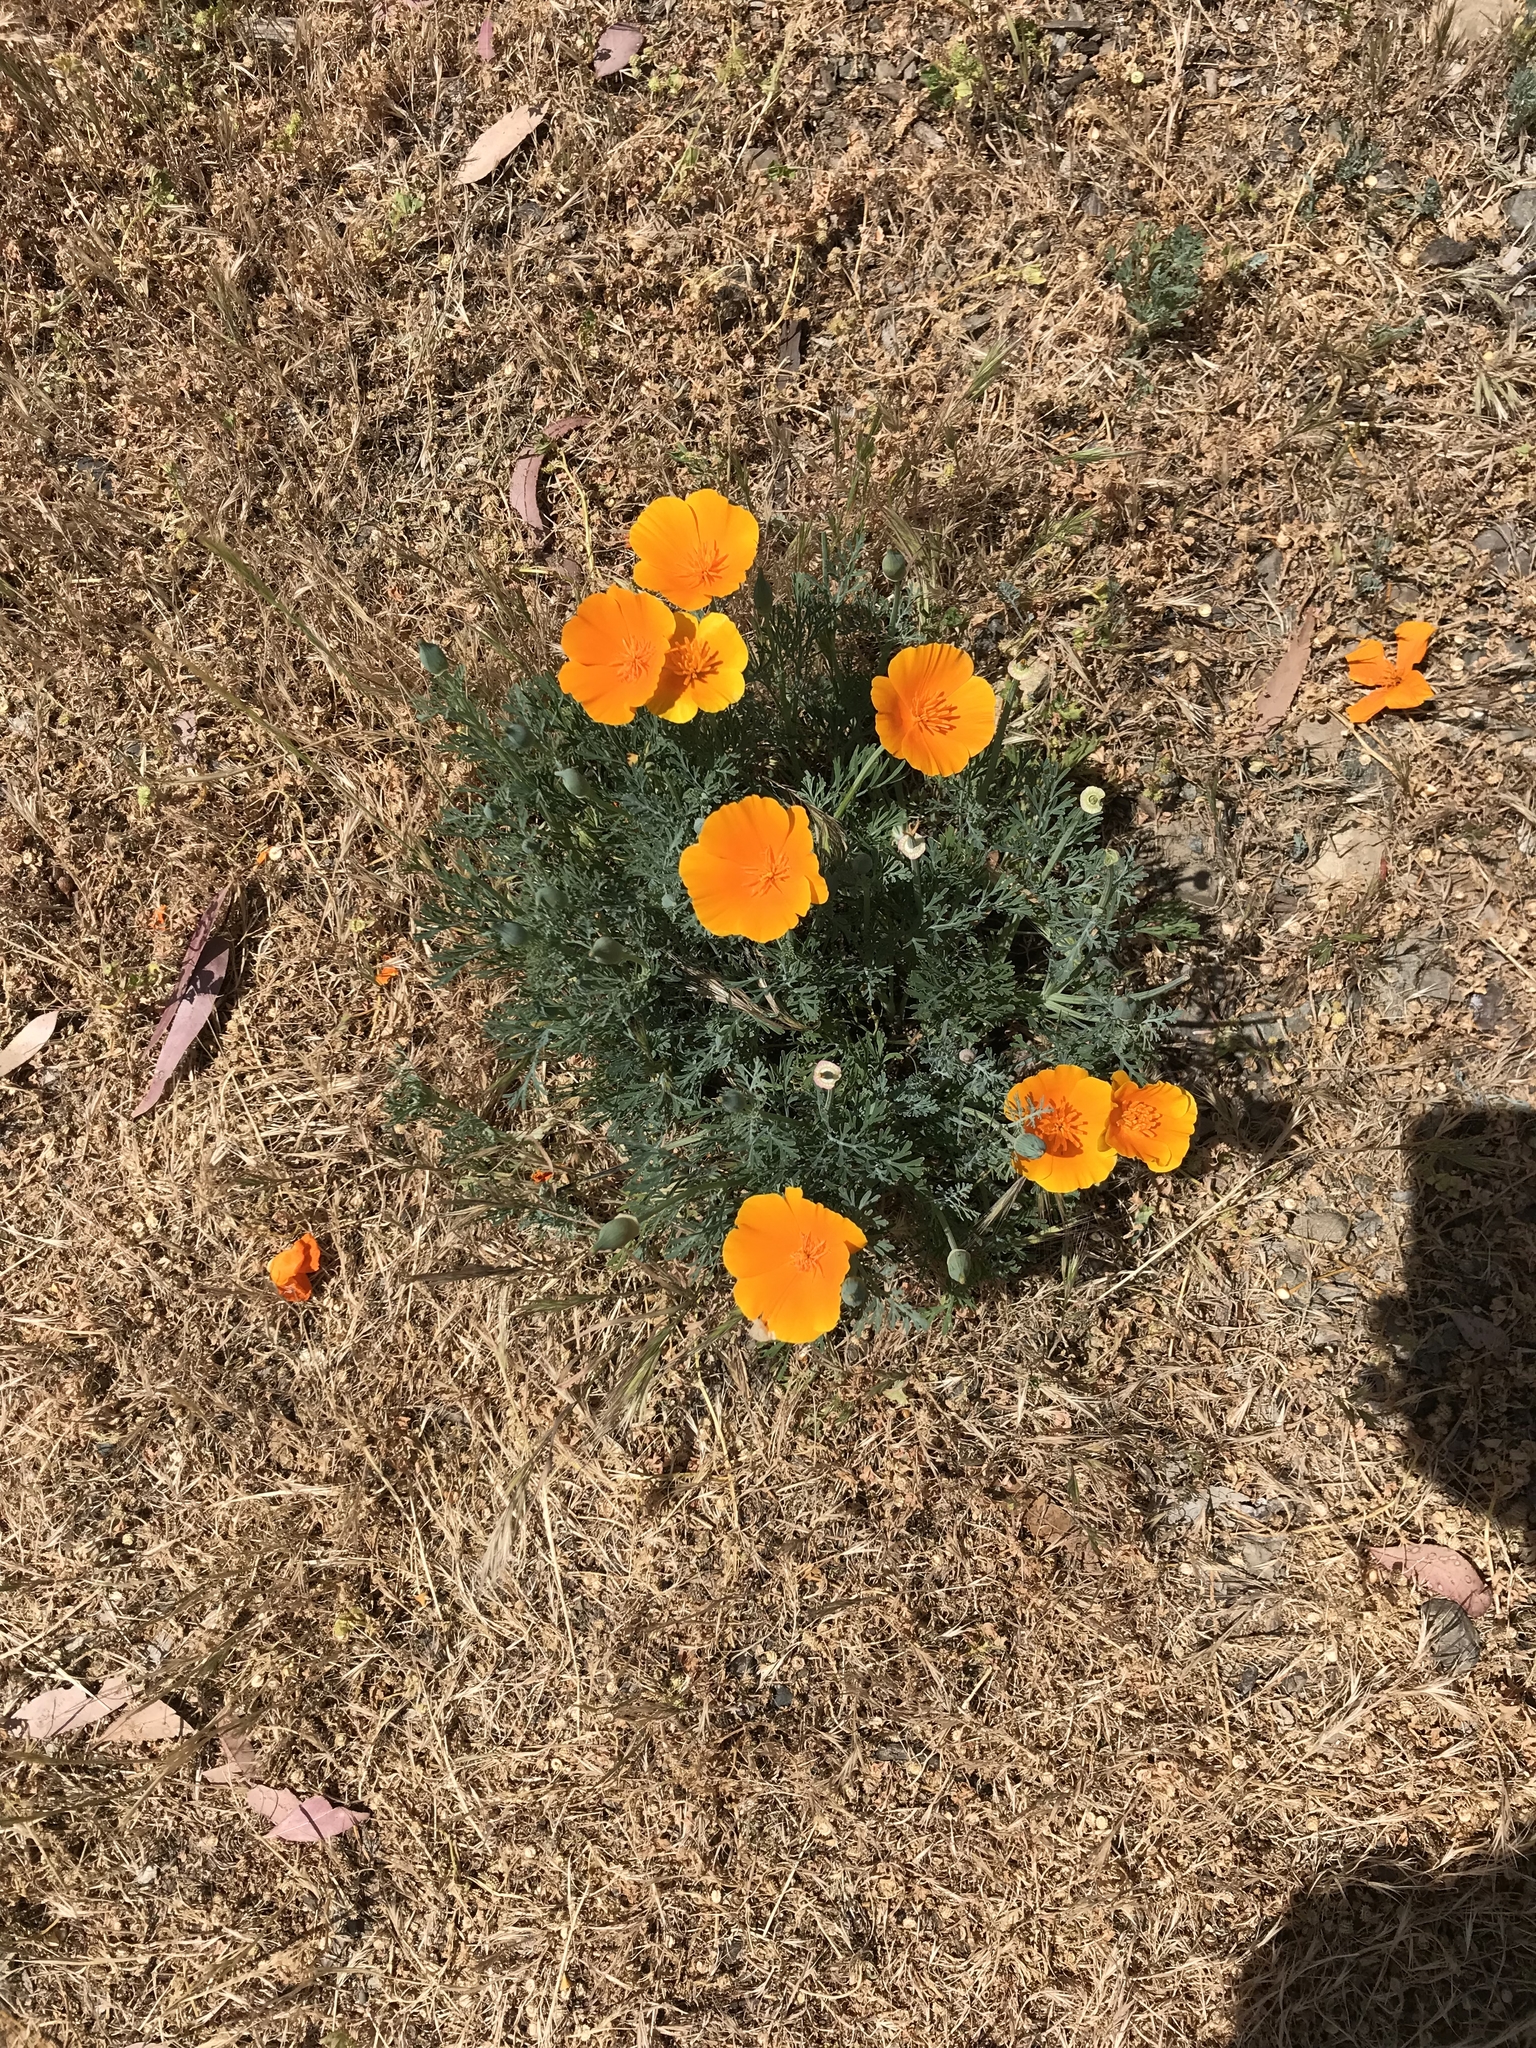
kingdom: Plantae
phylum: Tracheophyta
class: Magnoliopsida
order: Ranunculales
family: Papaveraceae
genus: Eschscholzia
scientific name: Eschscholzia californica
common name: California poppy
